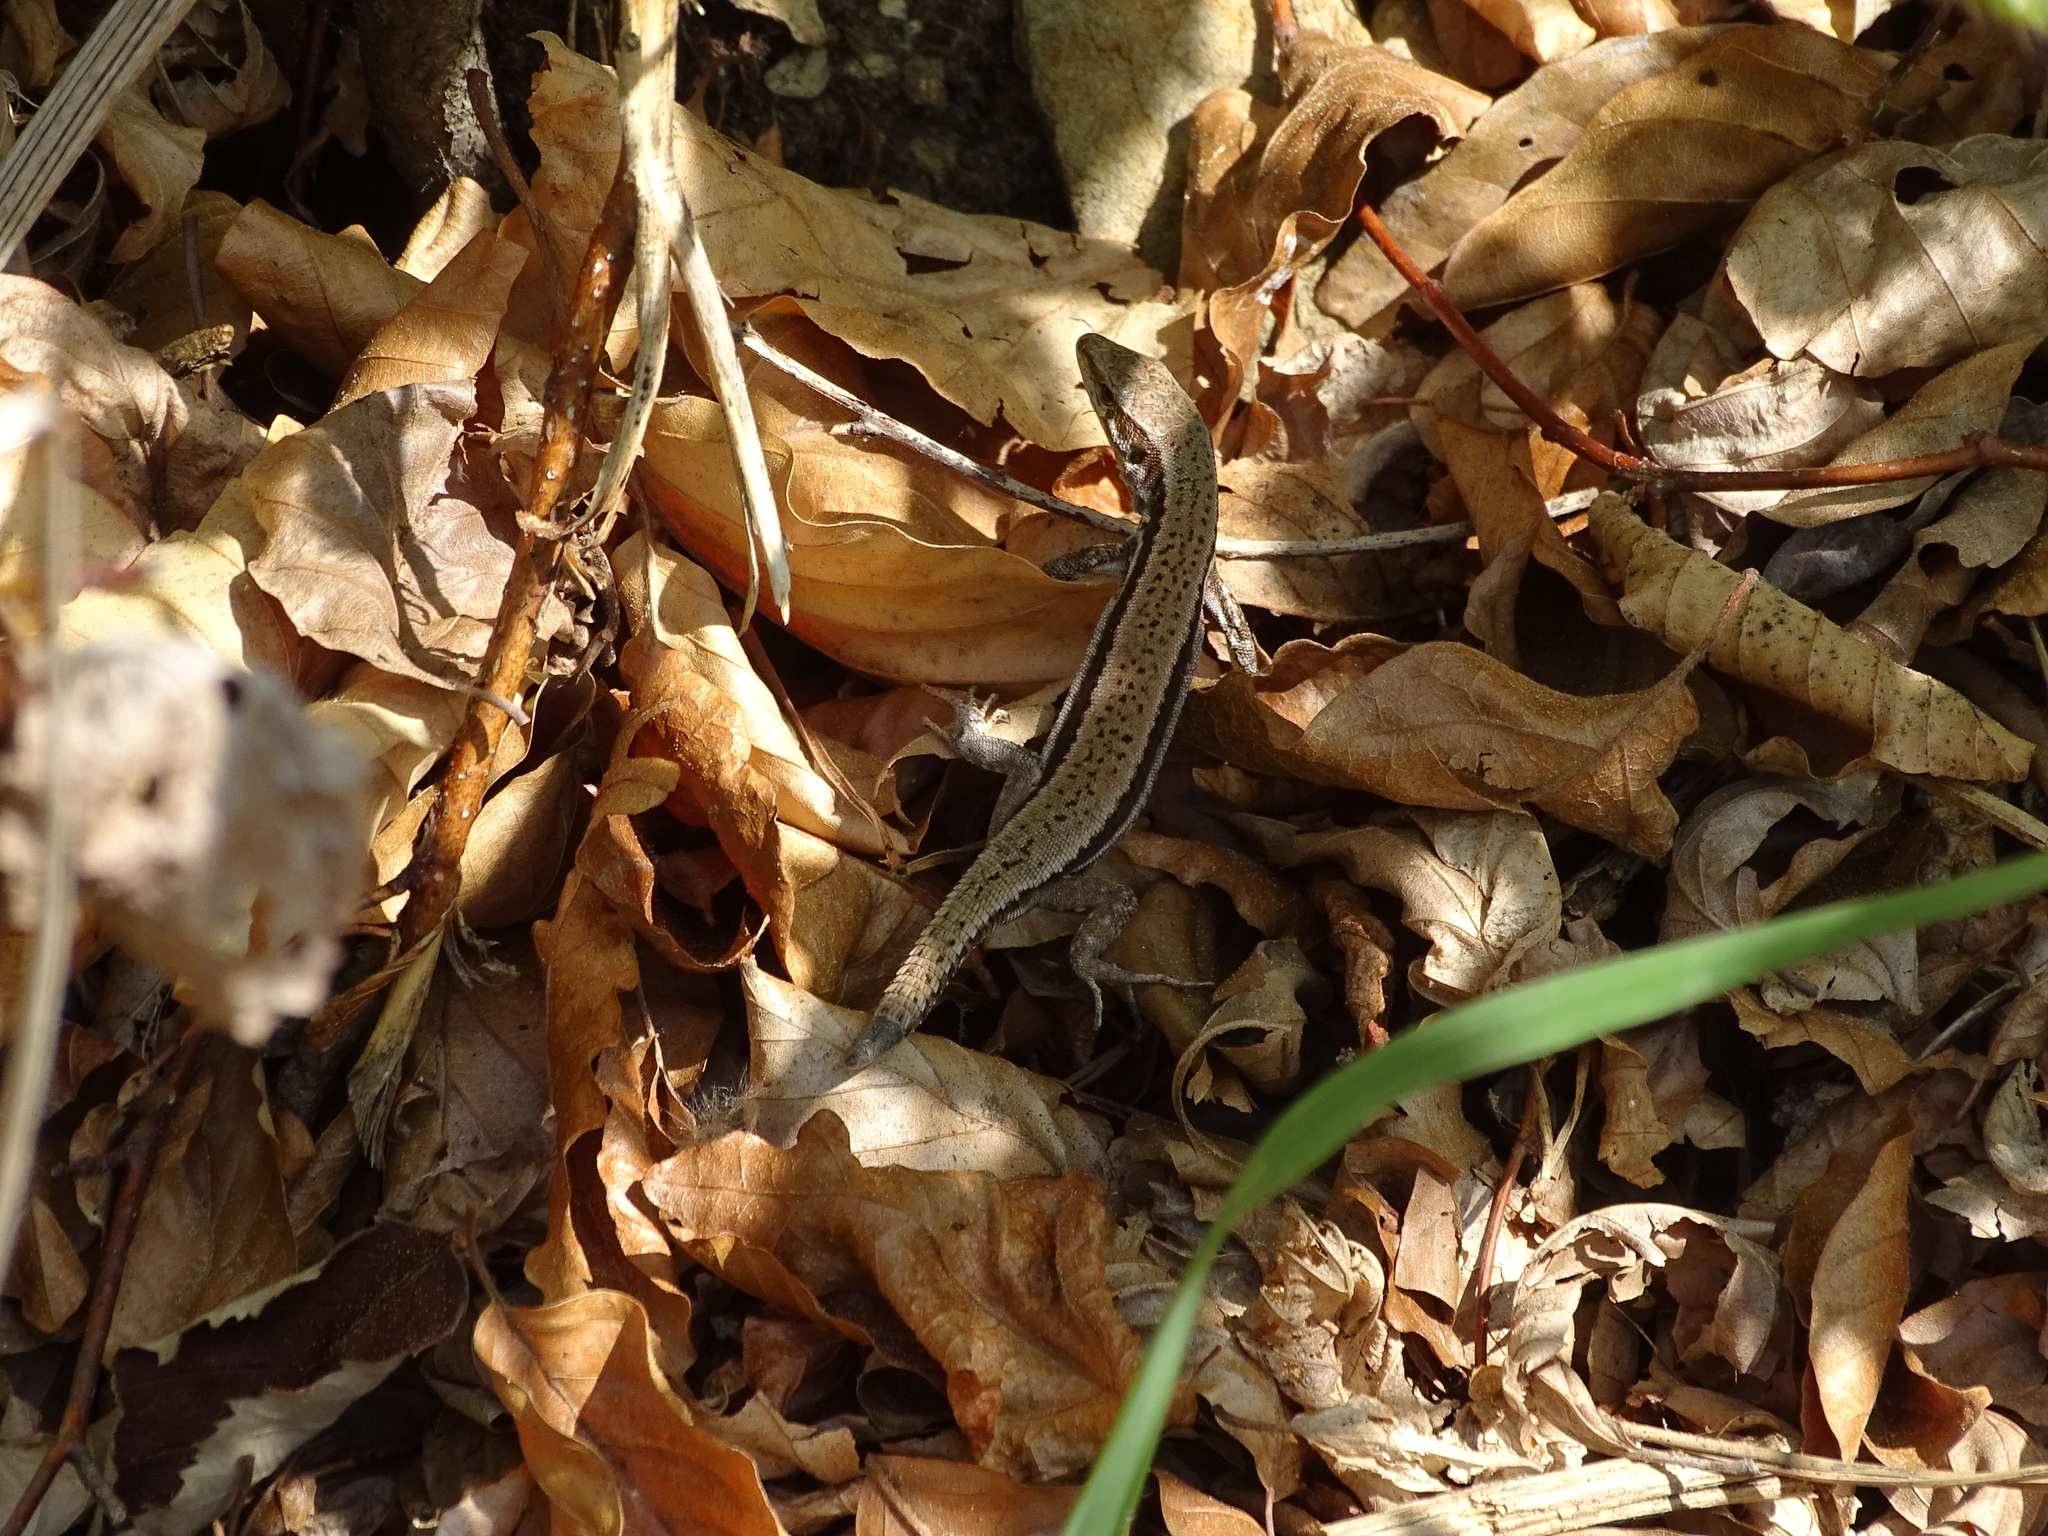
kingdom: Animalia
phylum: Chordata
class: Squamata
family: Lacertidae
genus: Podarcis
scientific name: Podarcis muralis
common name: Common wall lizard
